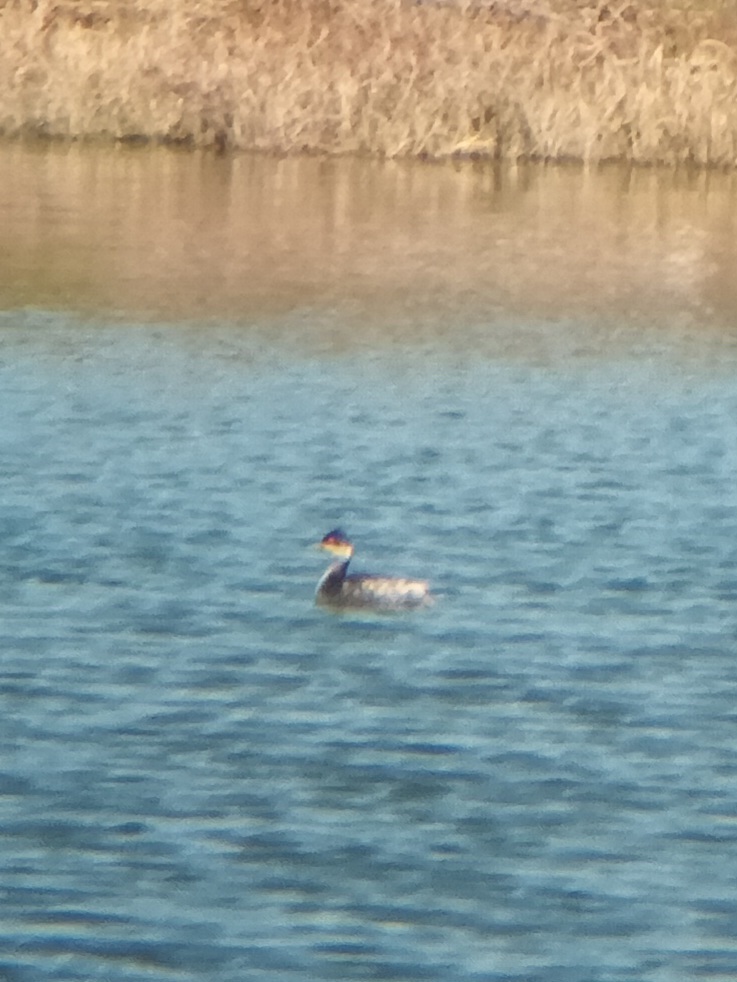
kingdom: Animalia
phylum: Chordata
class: Aves
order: Podicipediformes
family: Podicipedidae
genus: Podiceps
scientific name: Podiceps nigricollis
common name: Black-necked grebe
